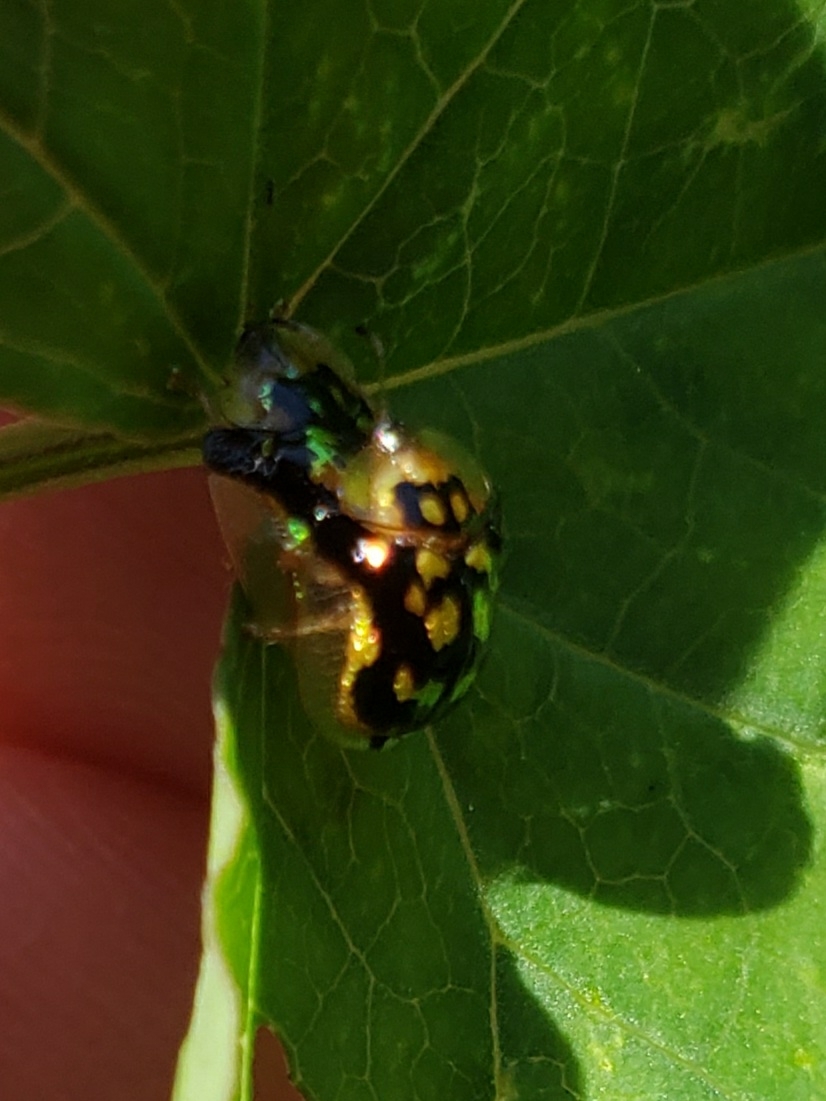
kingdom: Animalia
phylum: Arthropoda
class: Insecta
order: Coleoptera
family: Chrysomelidae
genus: Deloyala
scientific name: Deloyala guttata
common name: Mottled tortoise beetle
